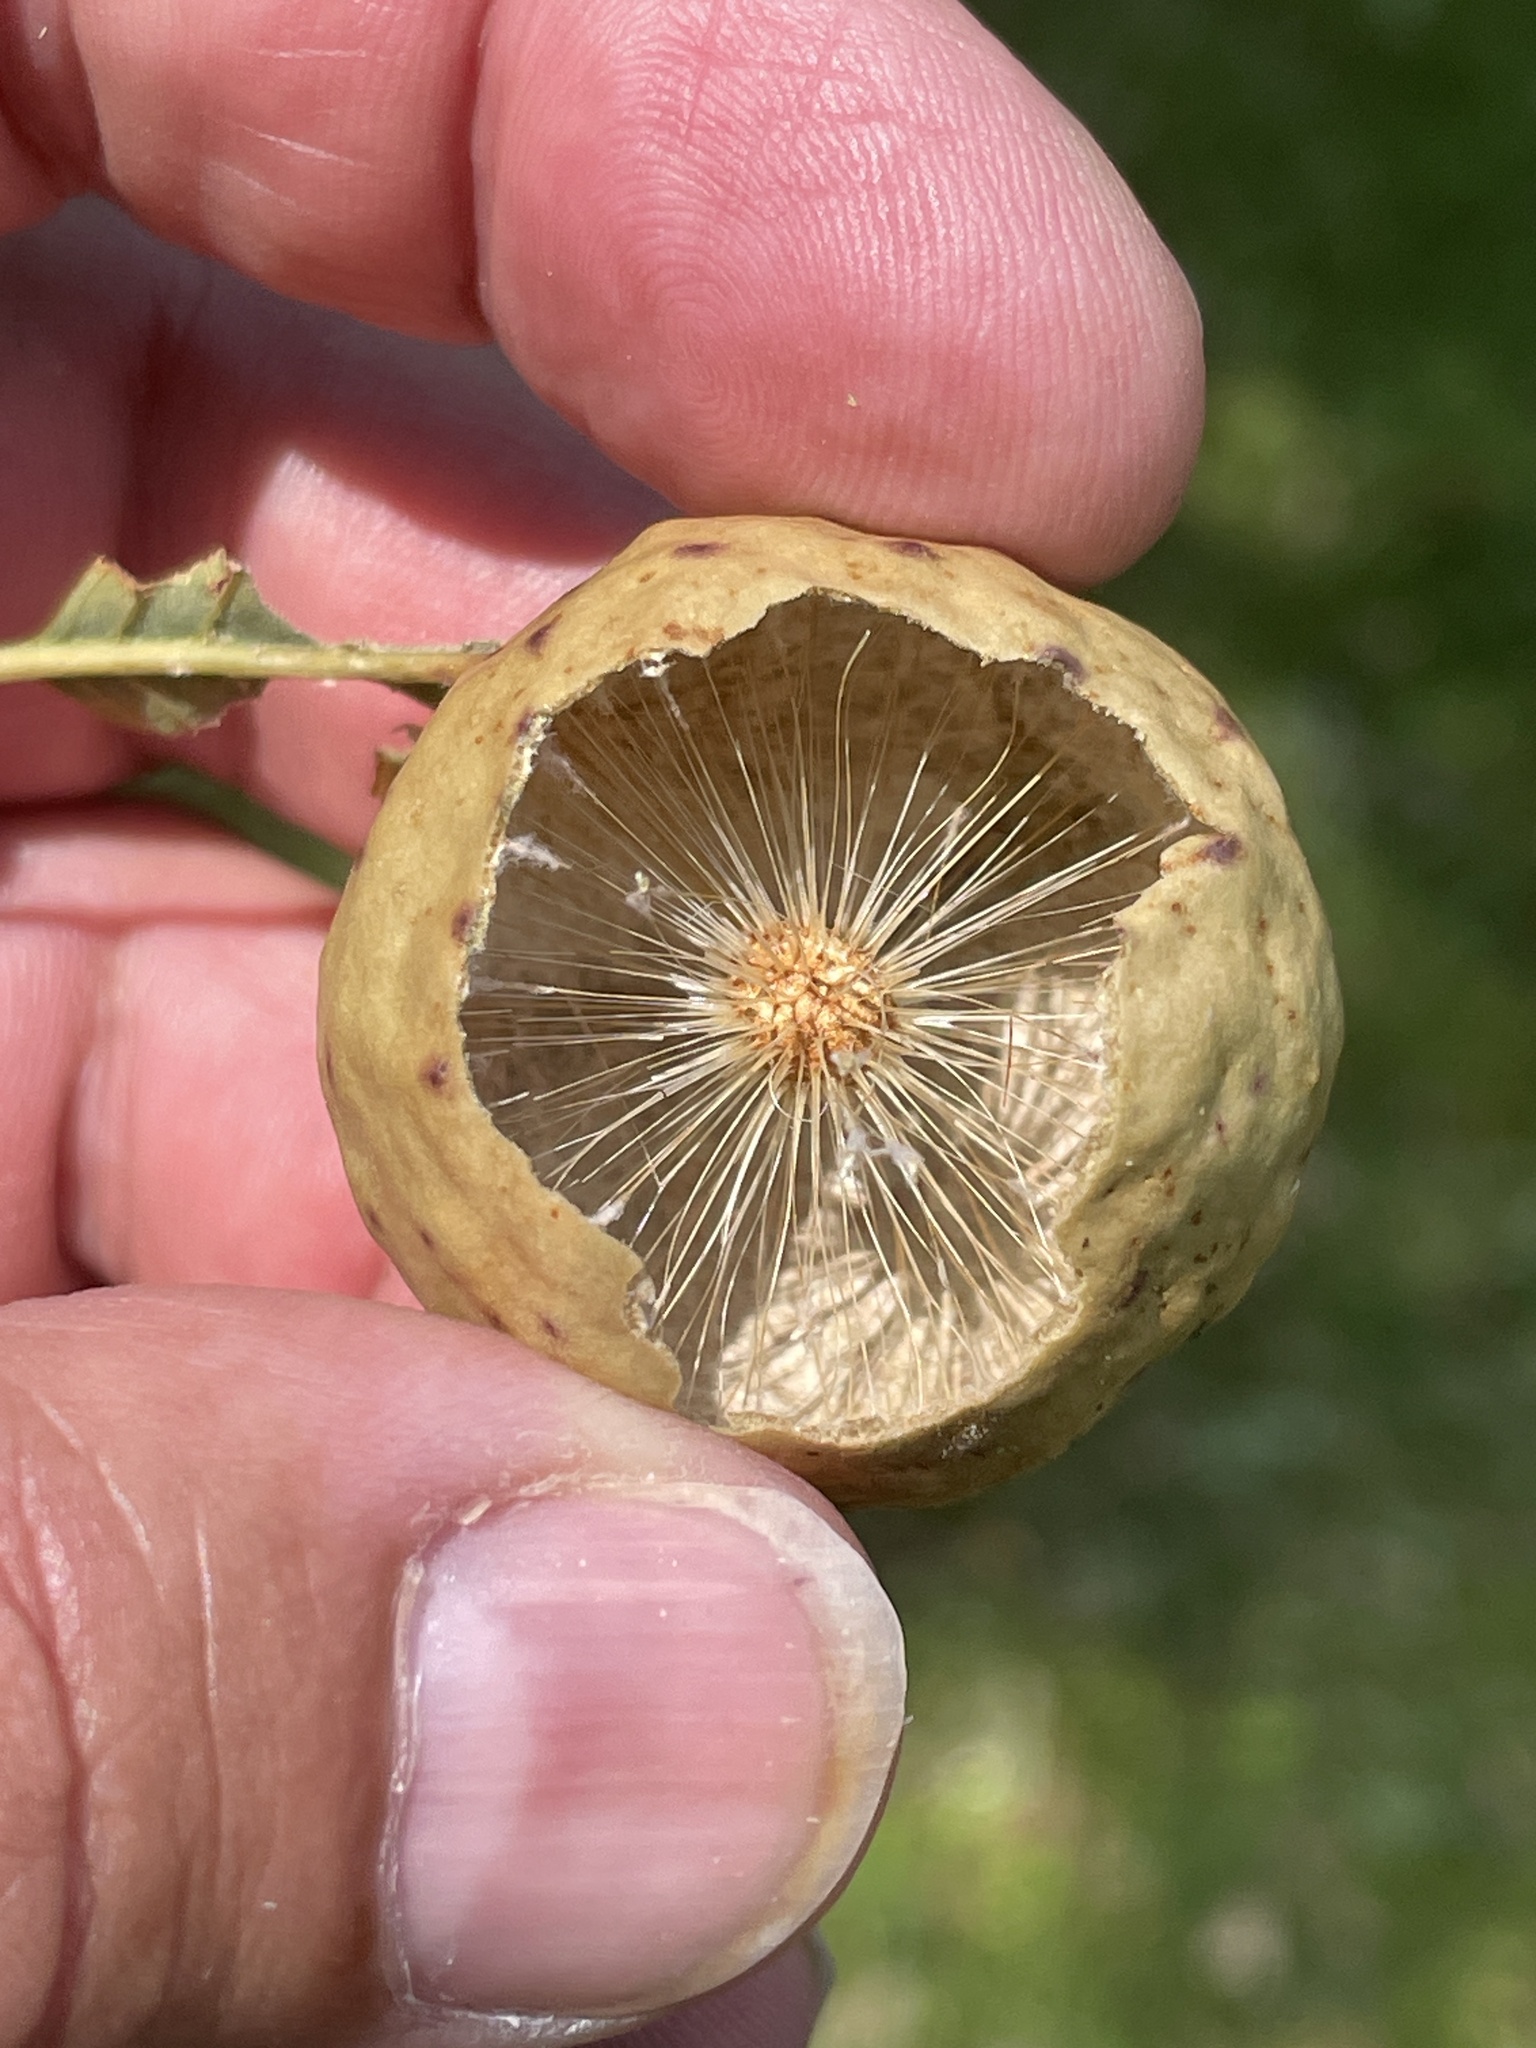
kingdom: Animalia
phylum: Arthropoda
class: Insecta
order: Hymenoptera
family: Cynipidae
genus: Amphibolips
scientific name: Amphibolips
